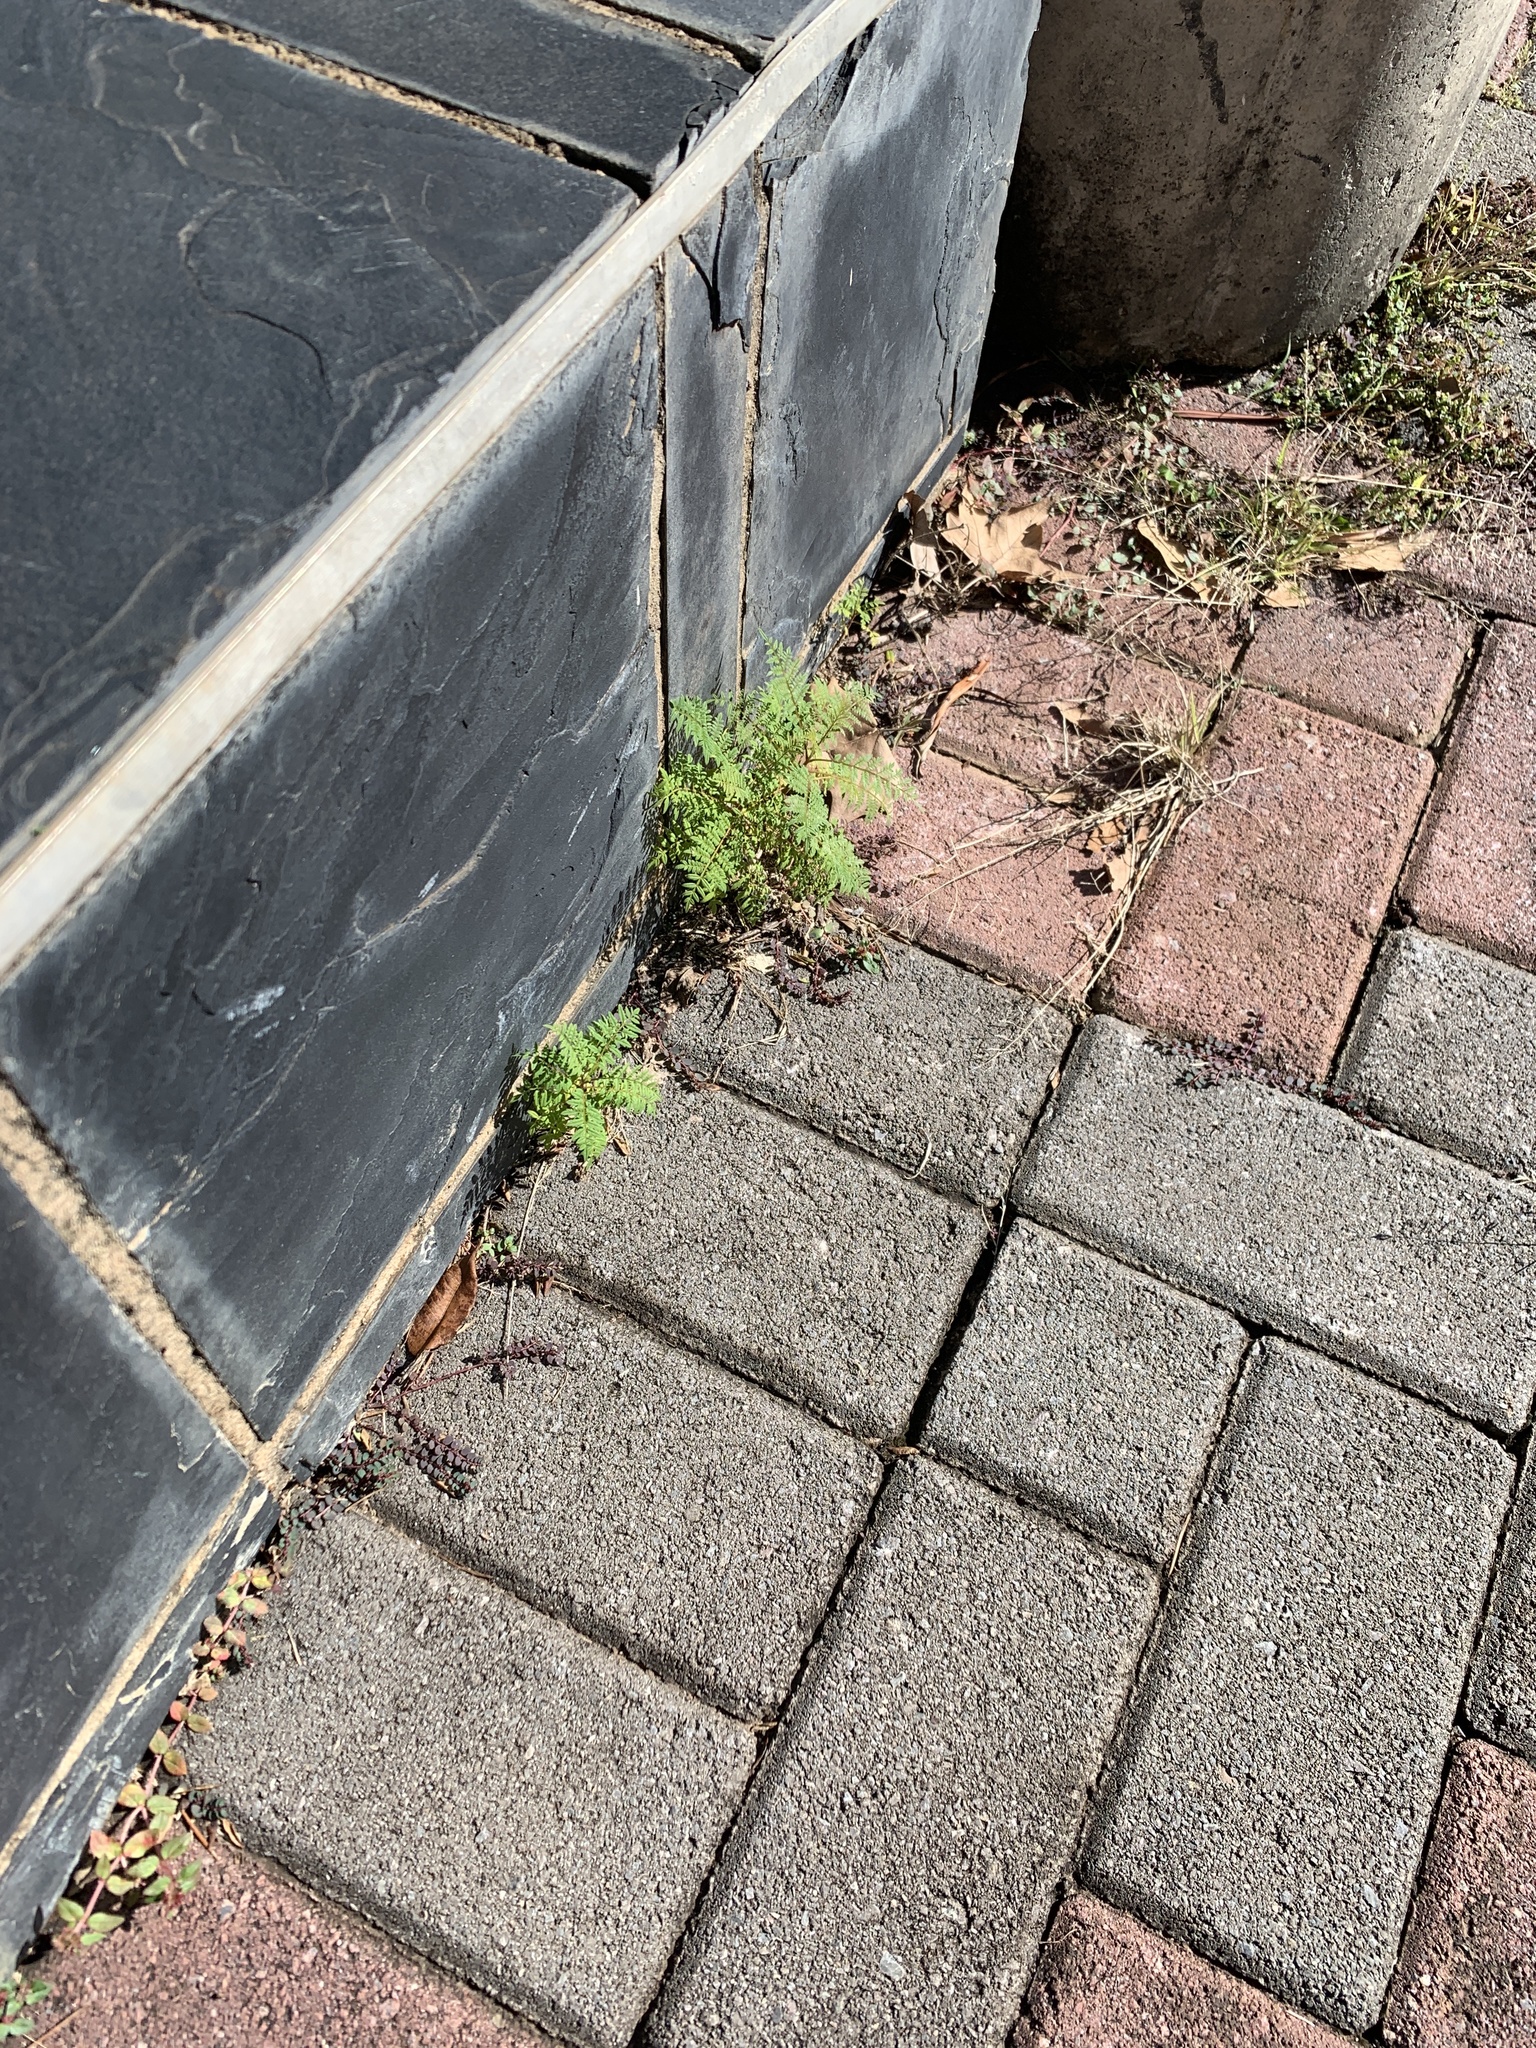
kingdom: Plantae
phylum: Tracheophyta
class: Magnoliopsida
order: Lamiales
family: Bignoniaceae
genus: Jacaranda
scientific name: Jacaranda mimosifolia
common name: Black poui
